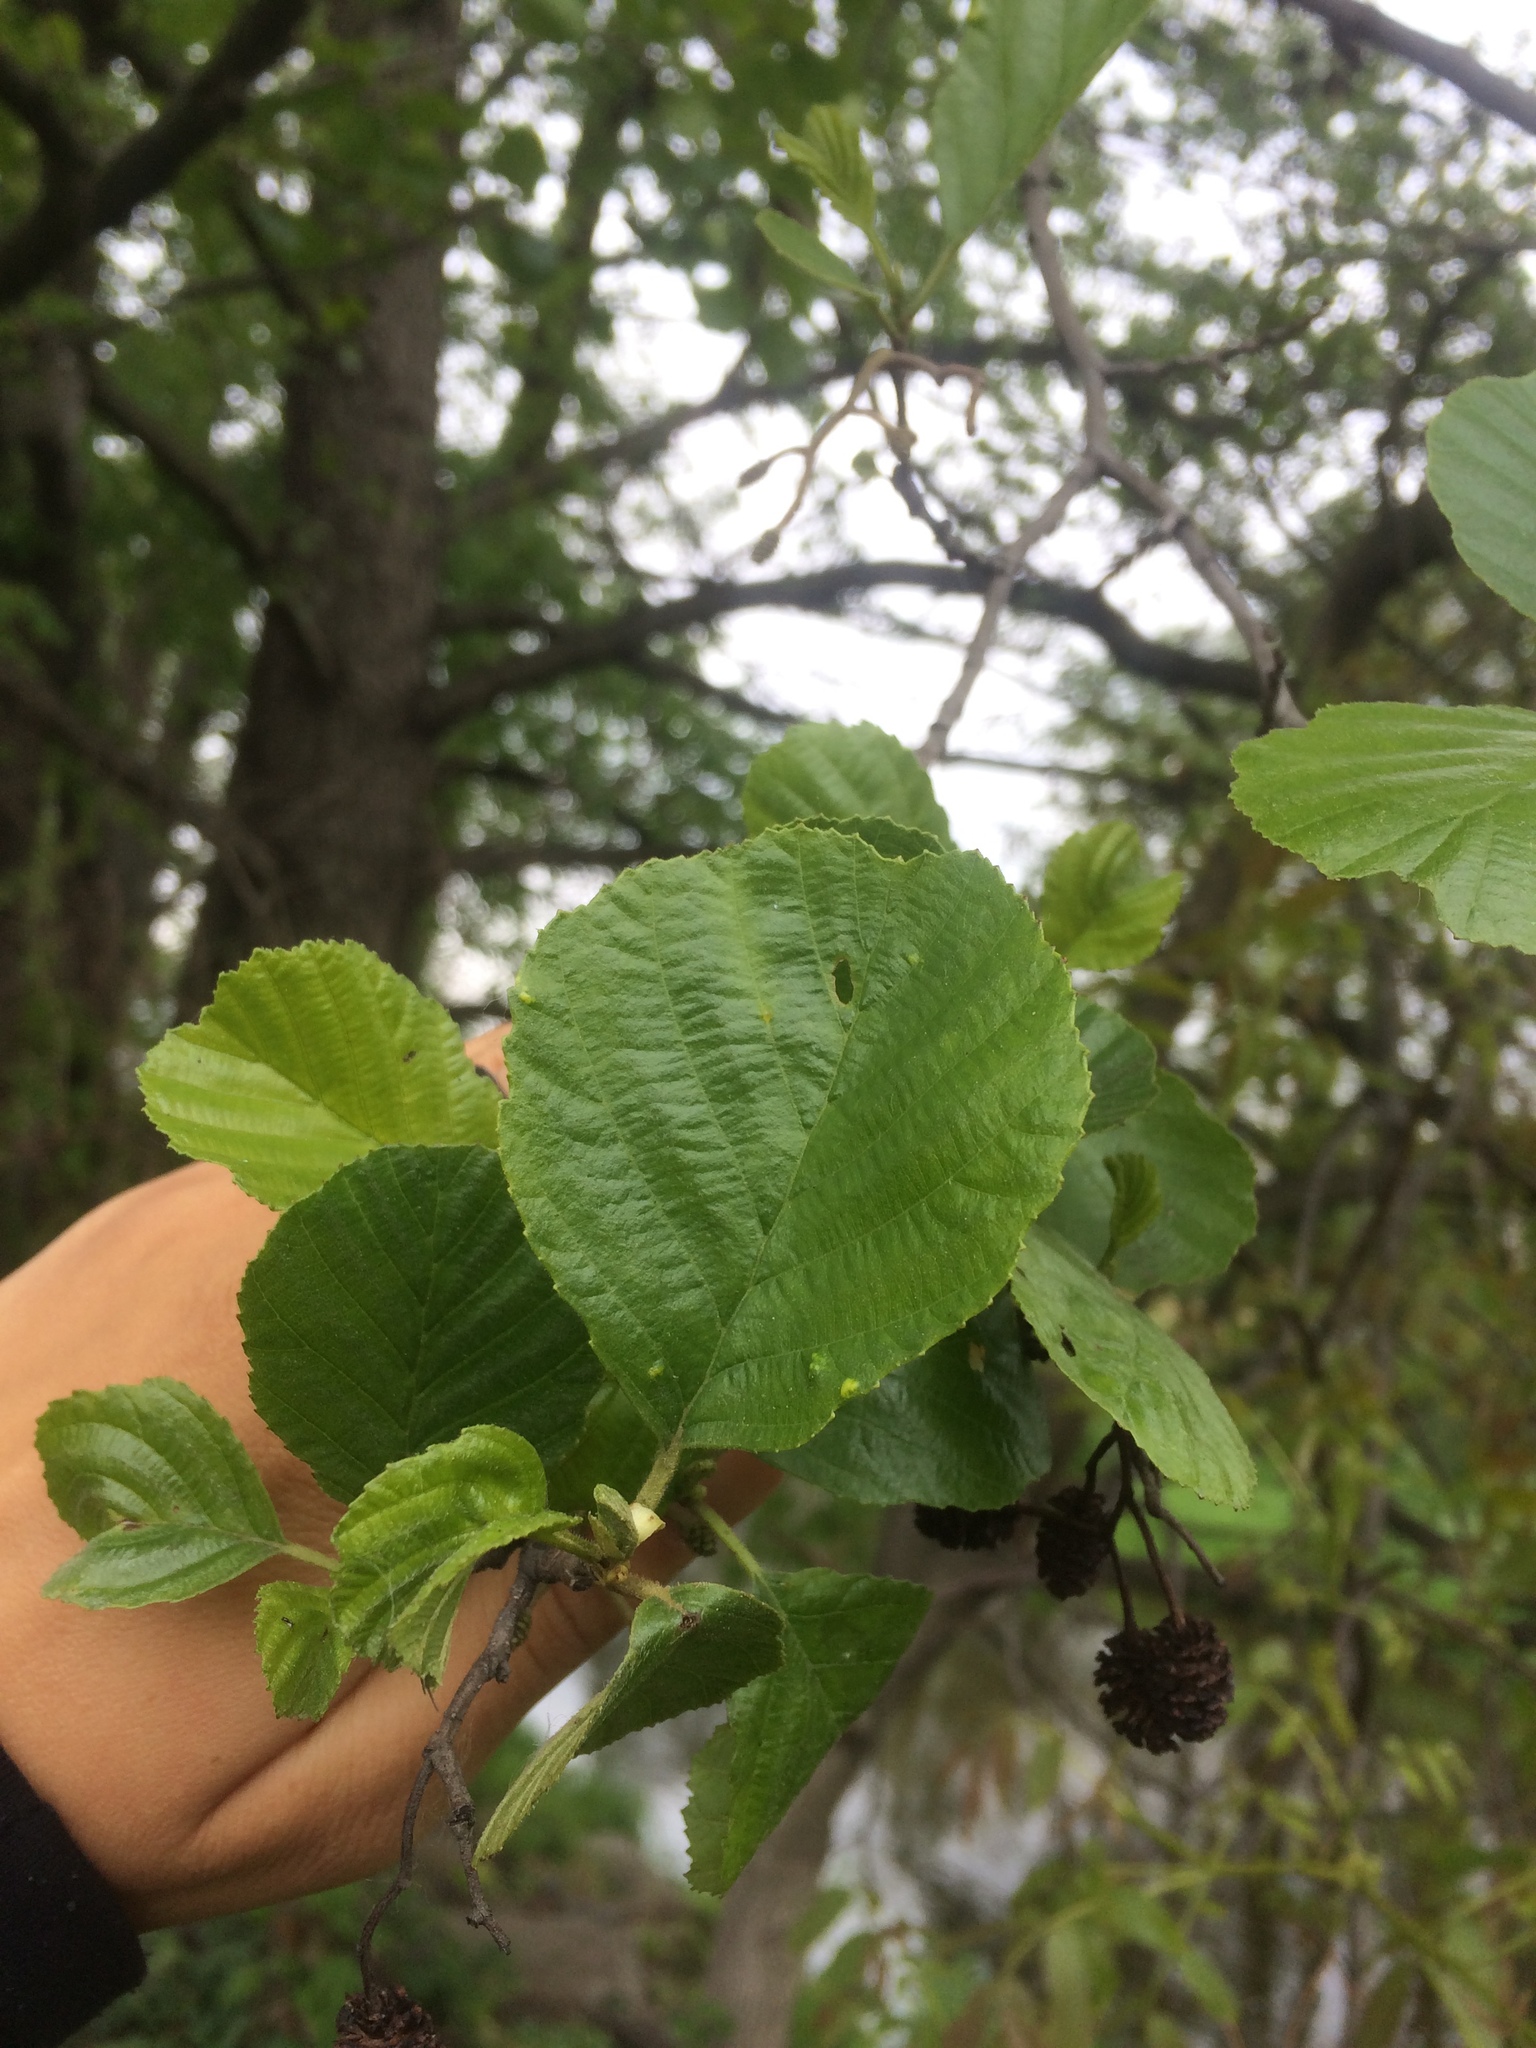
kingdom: Plantae
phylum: Tracheophyta
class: Magnoliopsida
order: Fagales
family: Betulaceae
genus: Alnus
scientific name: Alnus glutinosa
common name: Black alder
